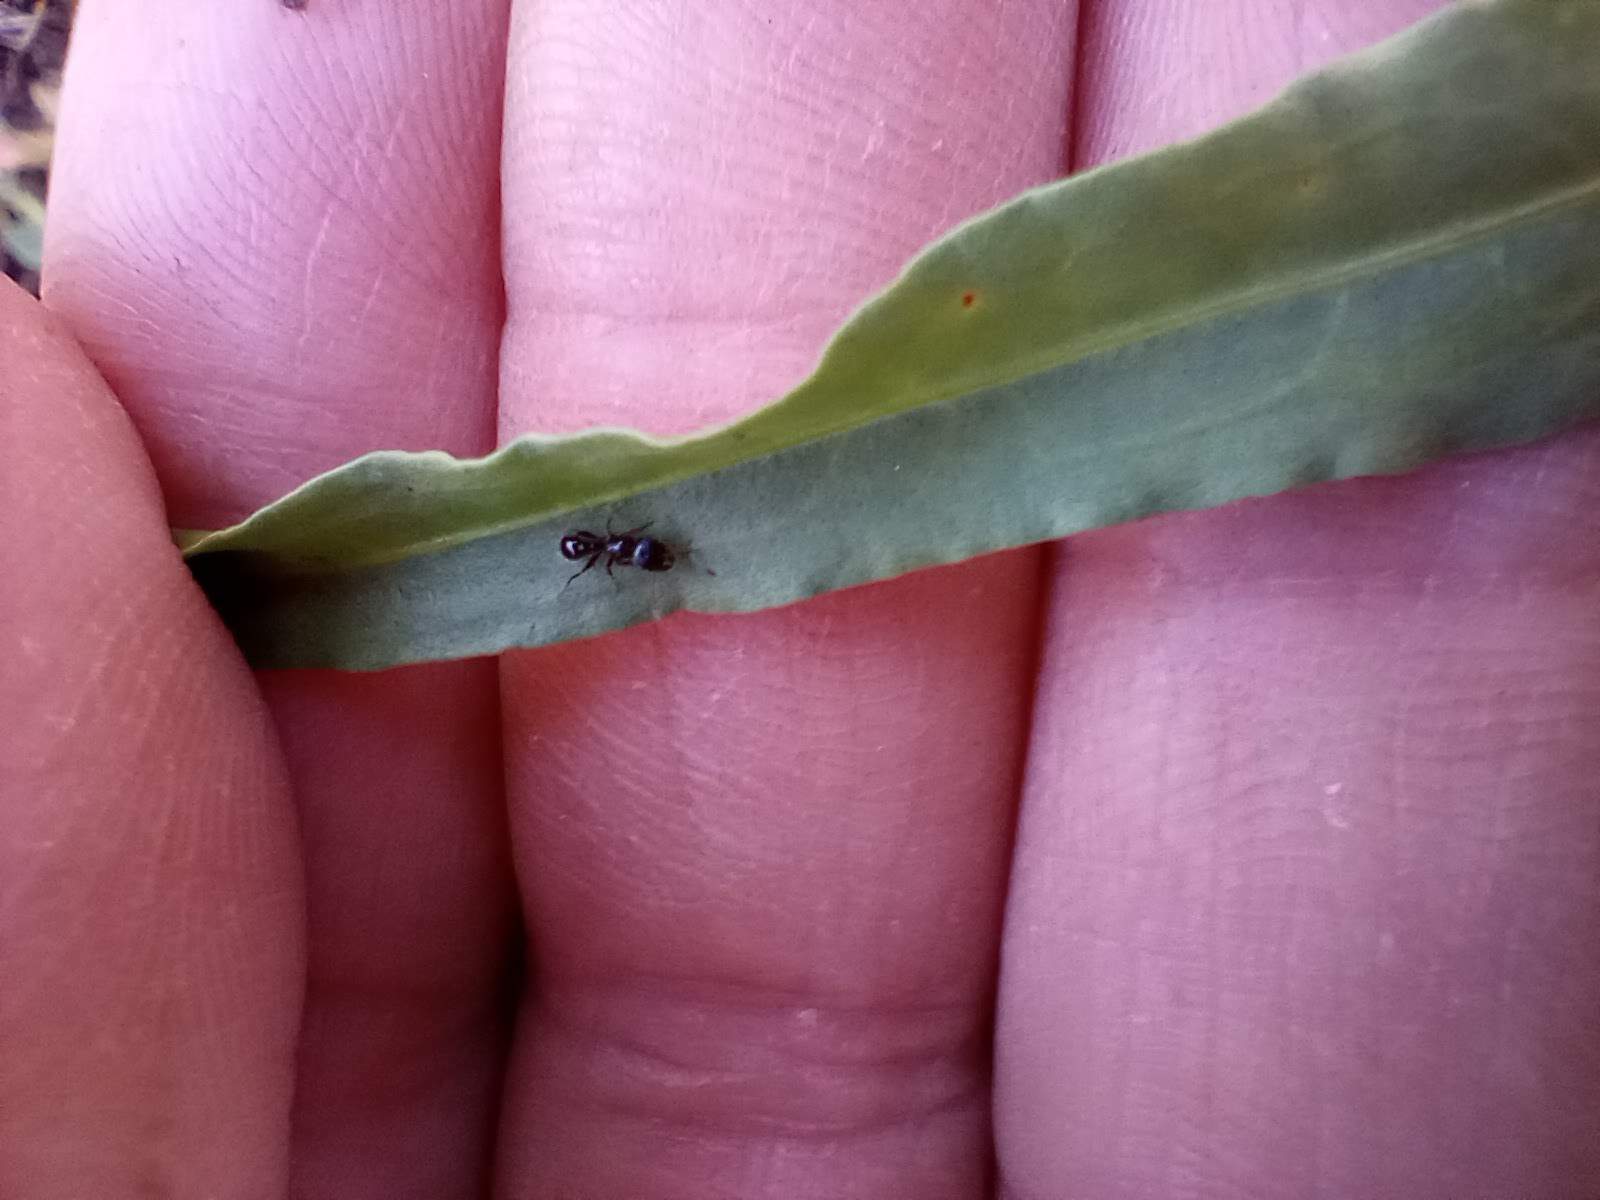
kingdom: Animalia
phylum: Arthropoda
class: Insecta
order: Hymenoptera
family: Formicidae
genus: Tetramorium
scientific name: Tetramorium immigrans
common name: Pavement ant
